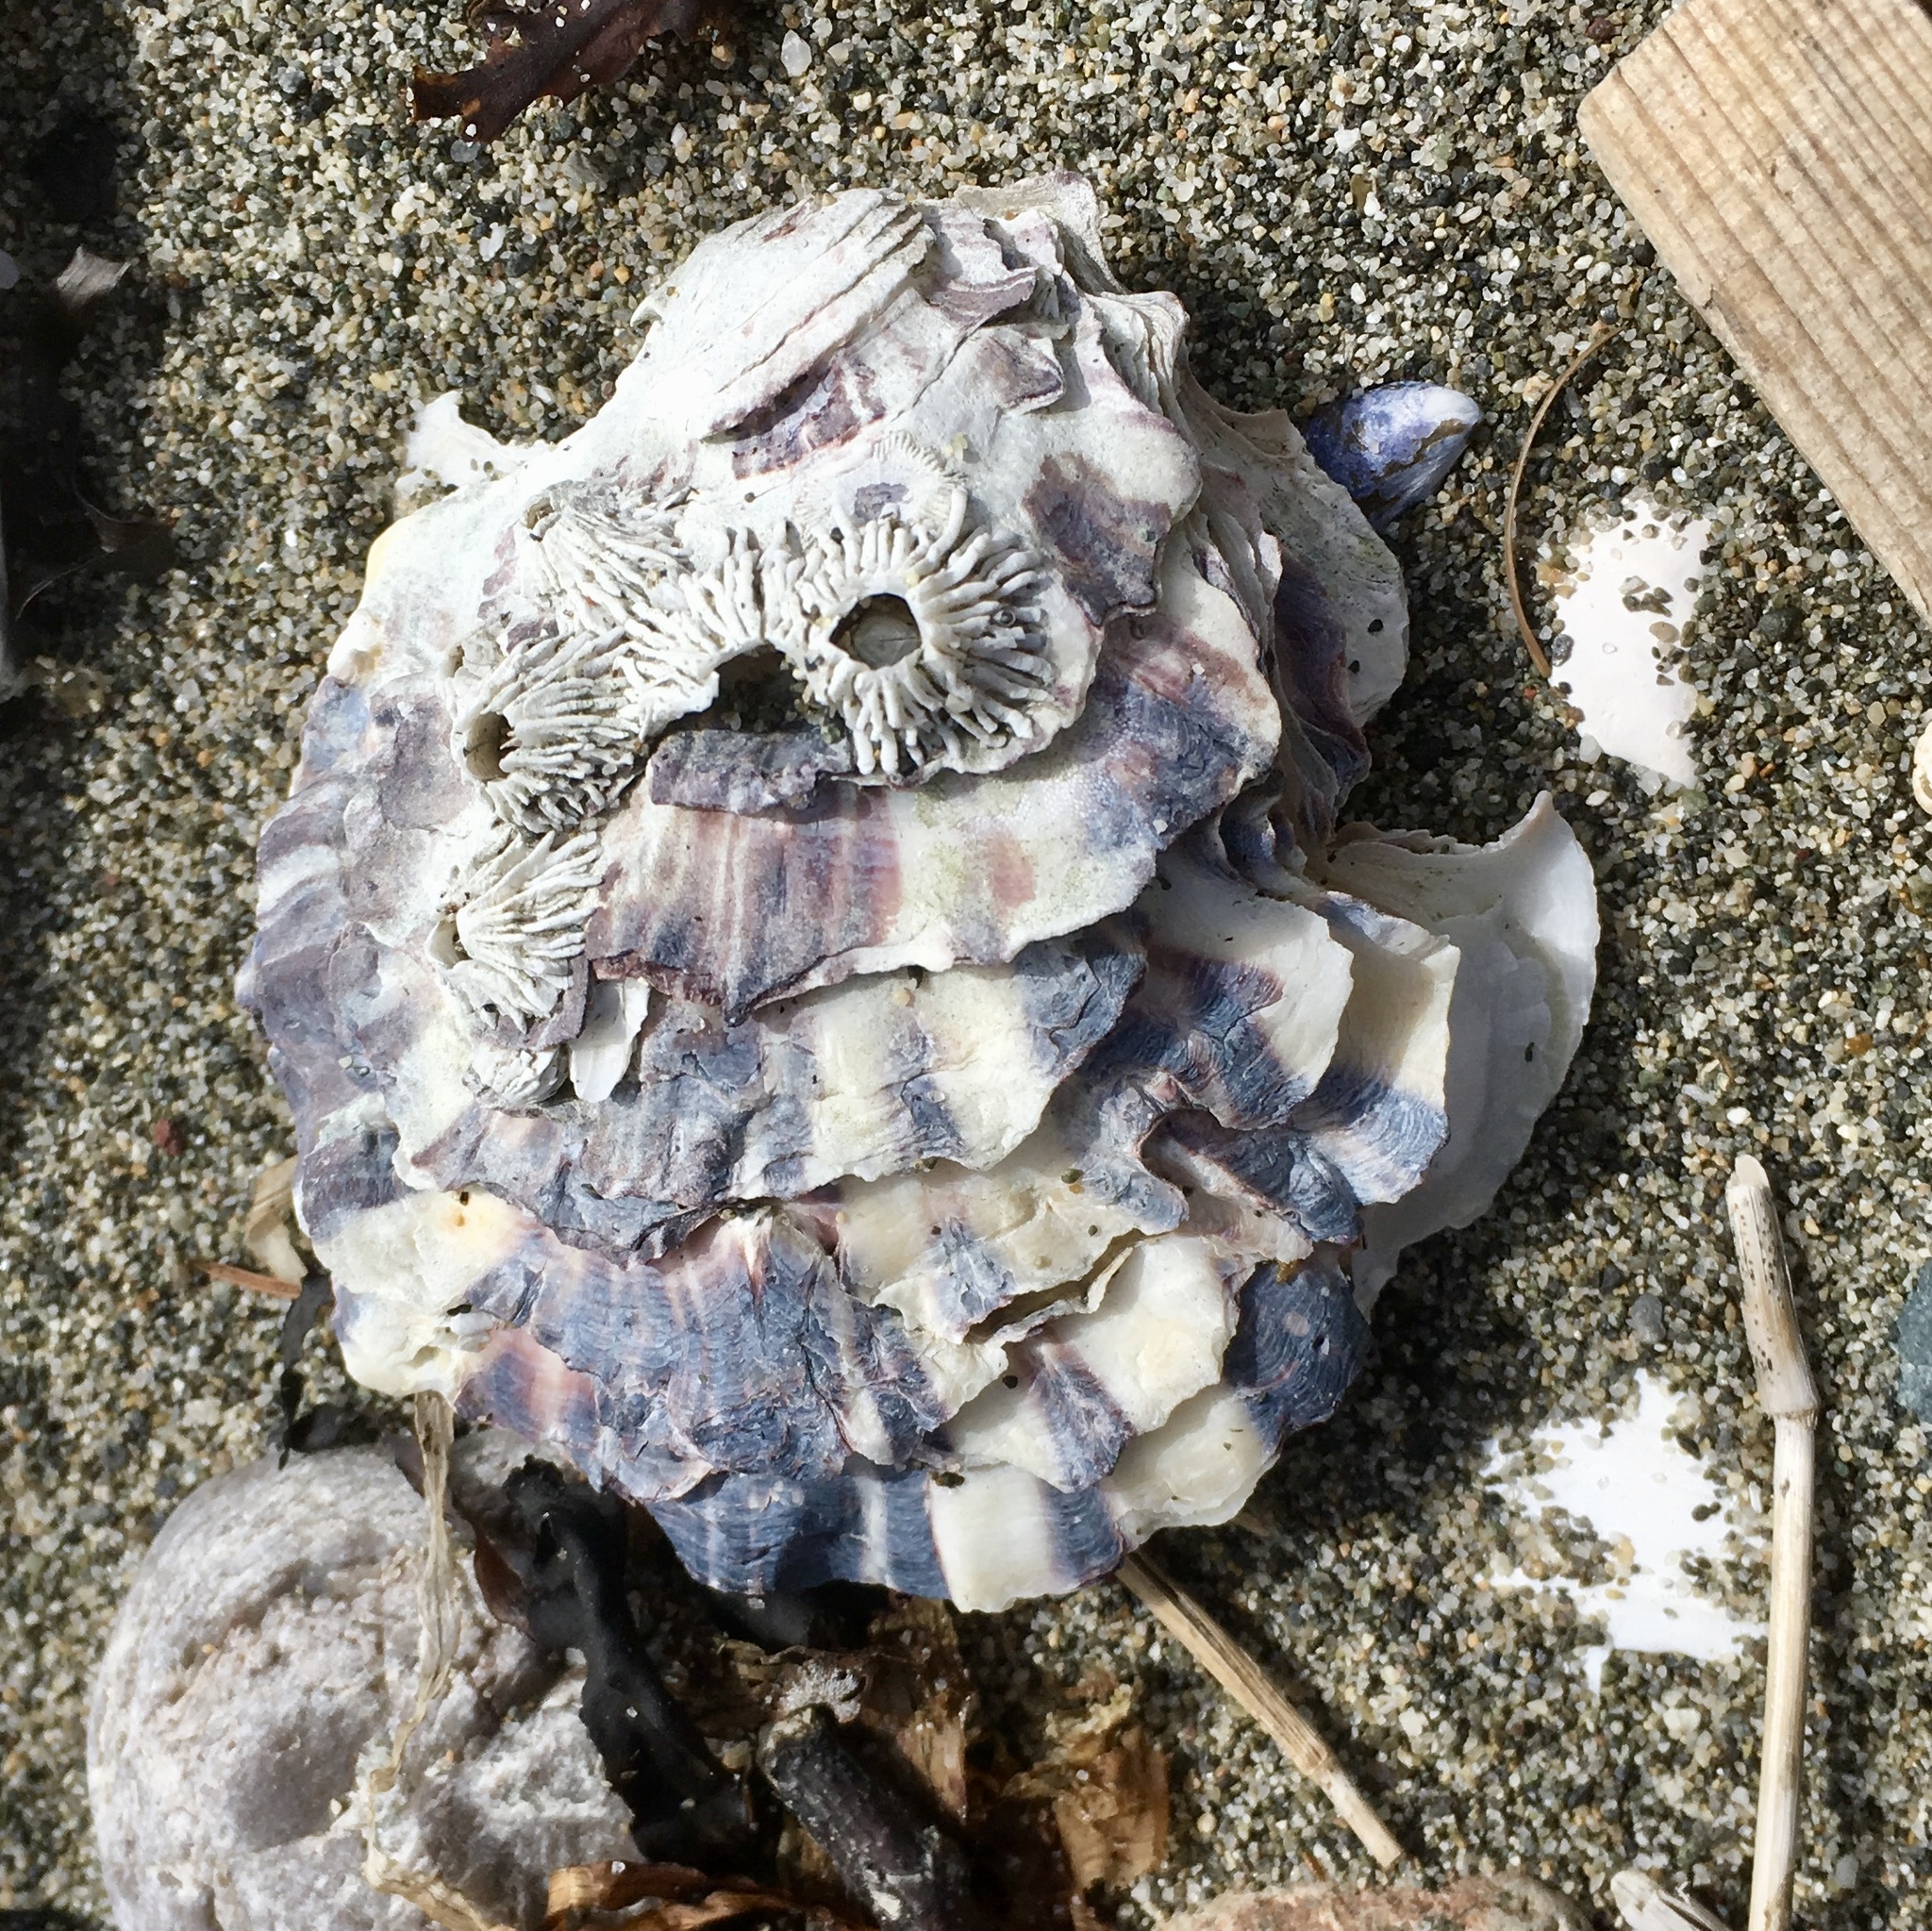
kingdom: Animalia
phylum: Mollusca
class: Bivalvia
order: Ostreida
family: Ostreidae
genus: Magallana
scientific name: Magallana gigas
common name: Pacific oyster
